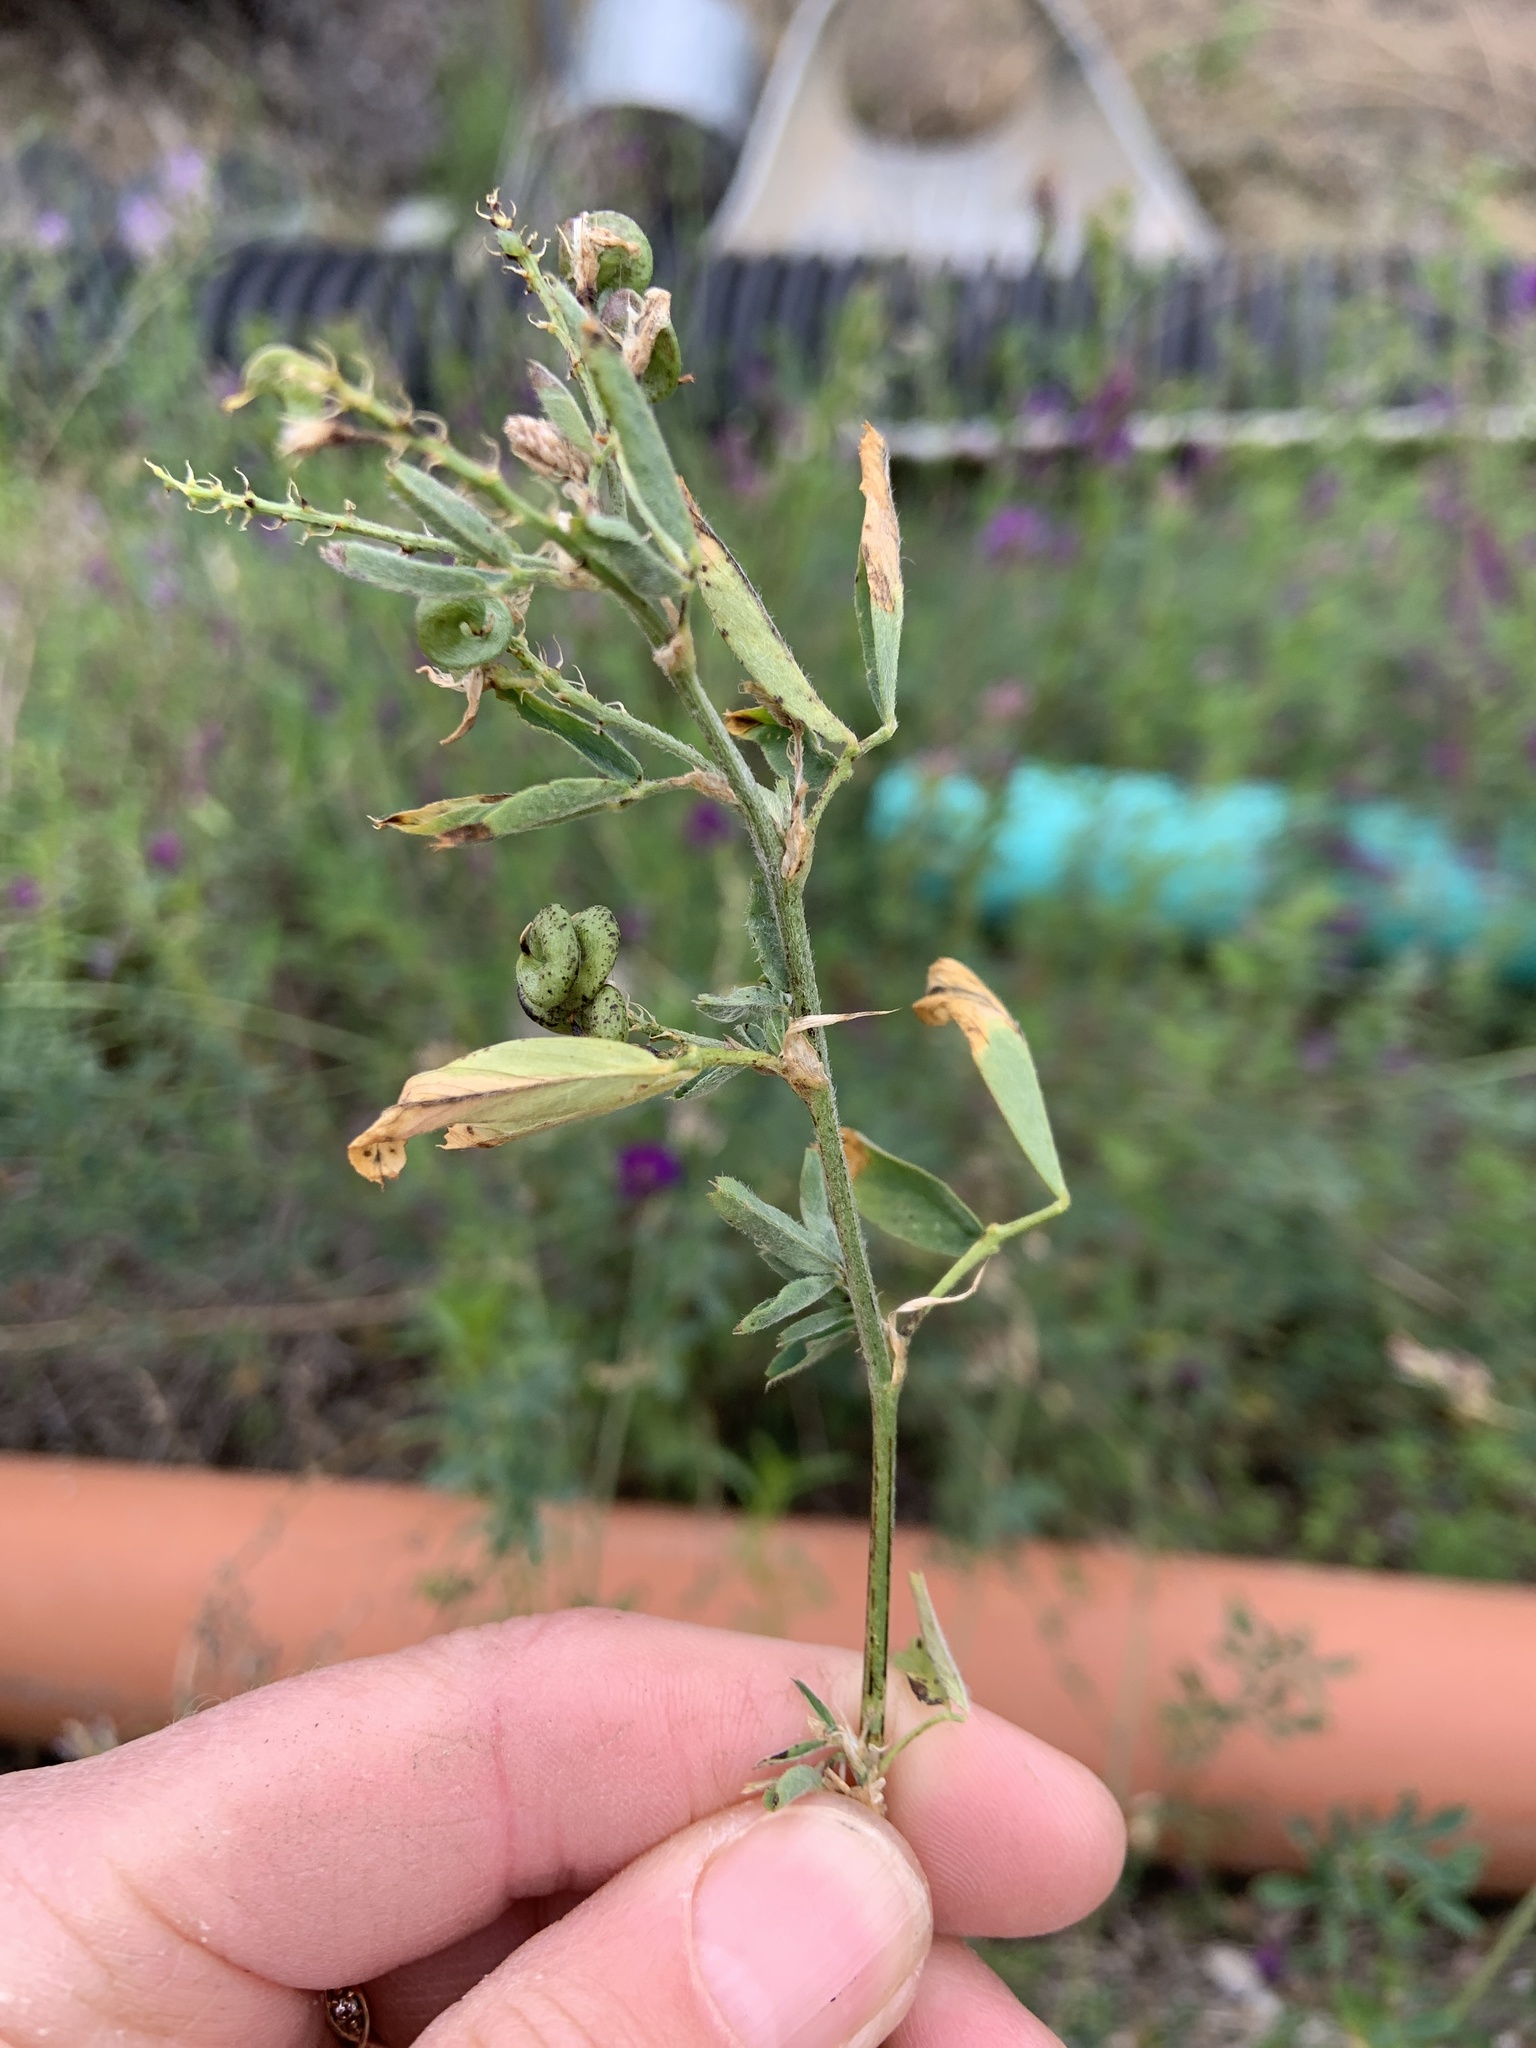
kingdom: Plantae
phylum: Tracheophyta
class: Magnoliopsida
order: Fabales
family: Fabaceae
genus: Medicago
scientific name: Medicago sativa
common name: Alfalfa
